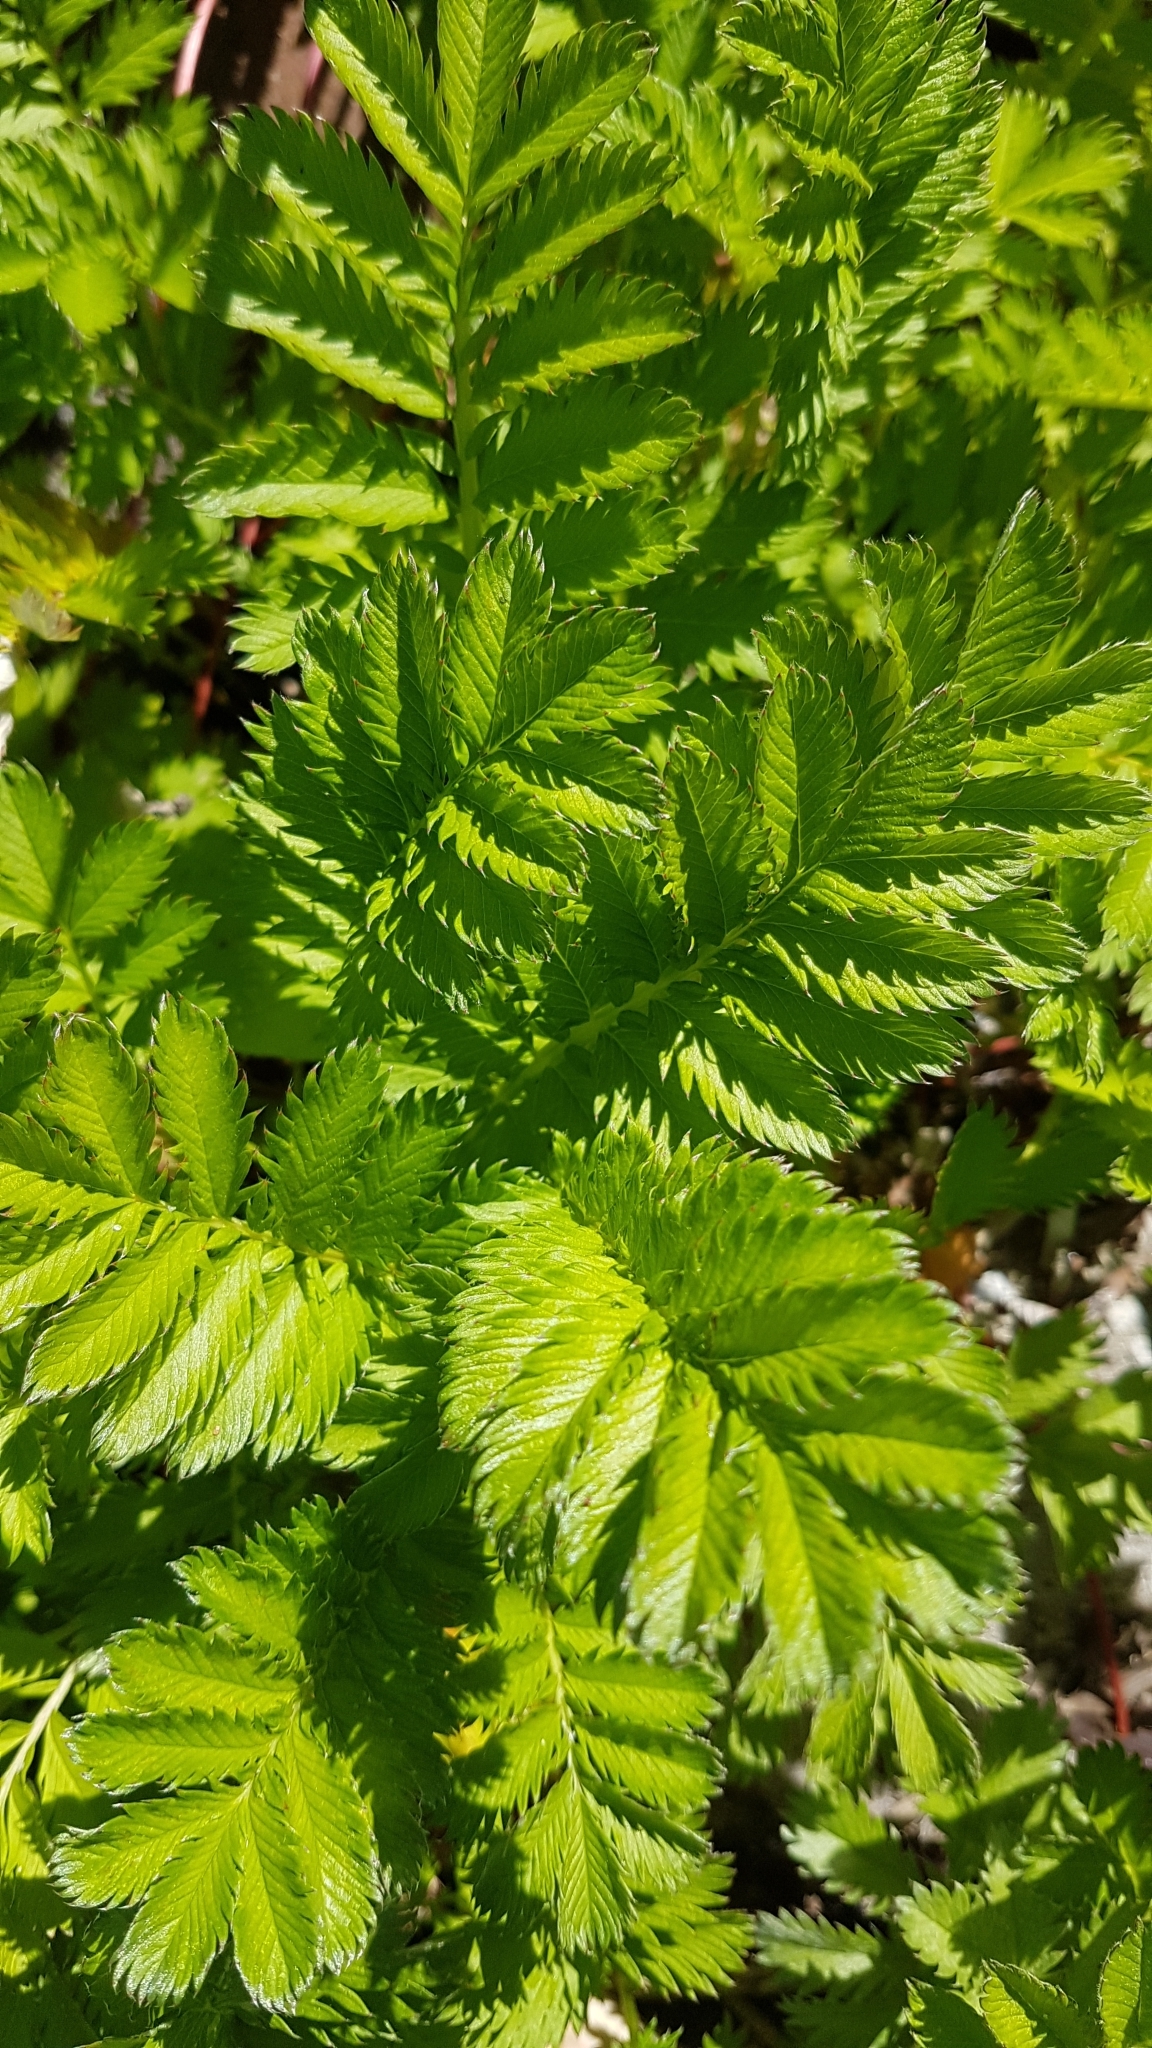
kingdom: Plantae
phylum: Tracheophyta
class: Magnoliopsida
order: Rosales
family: Rosaceae
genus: Argentina
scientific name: Argentina anserina
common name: Common silverweed
